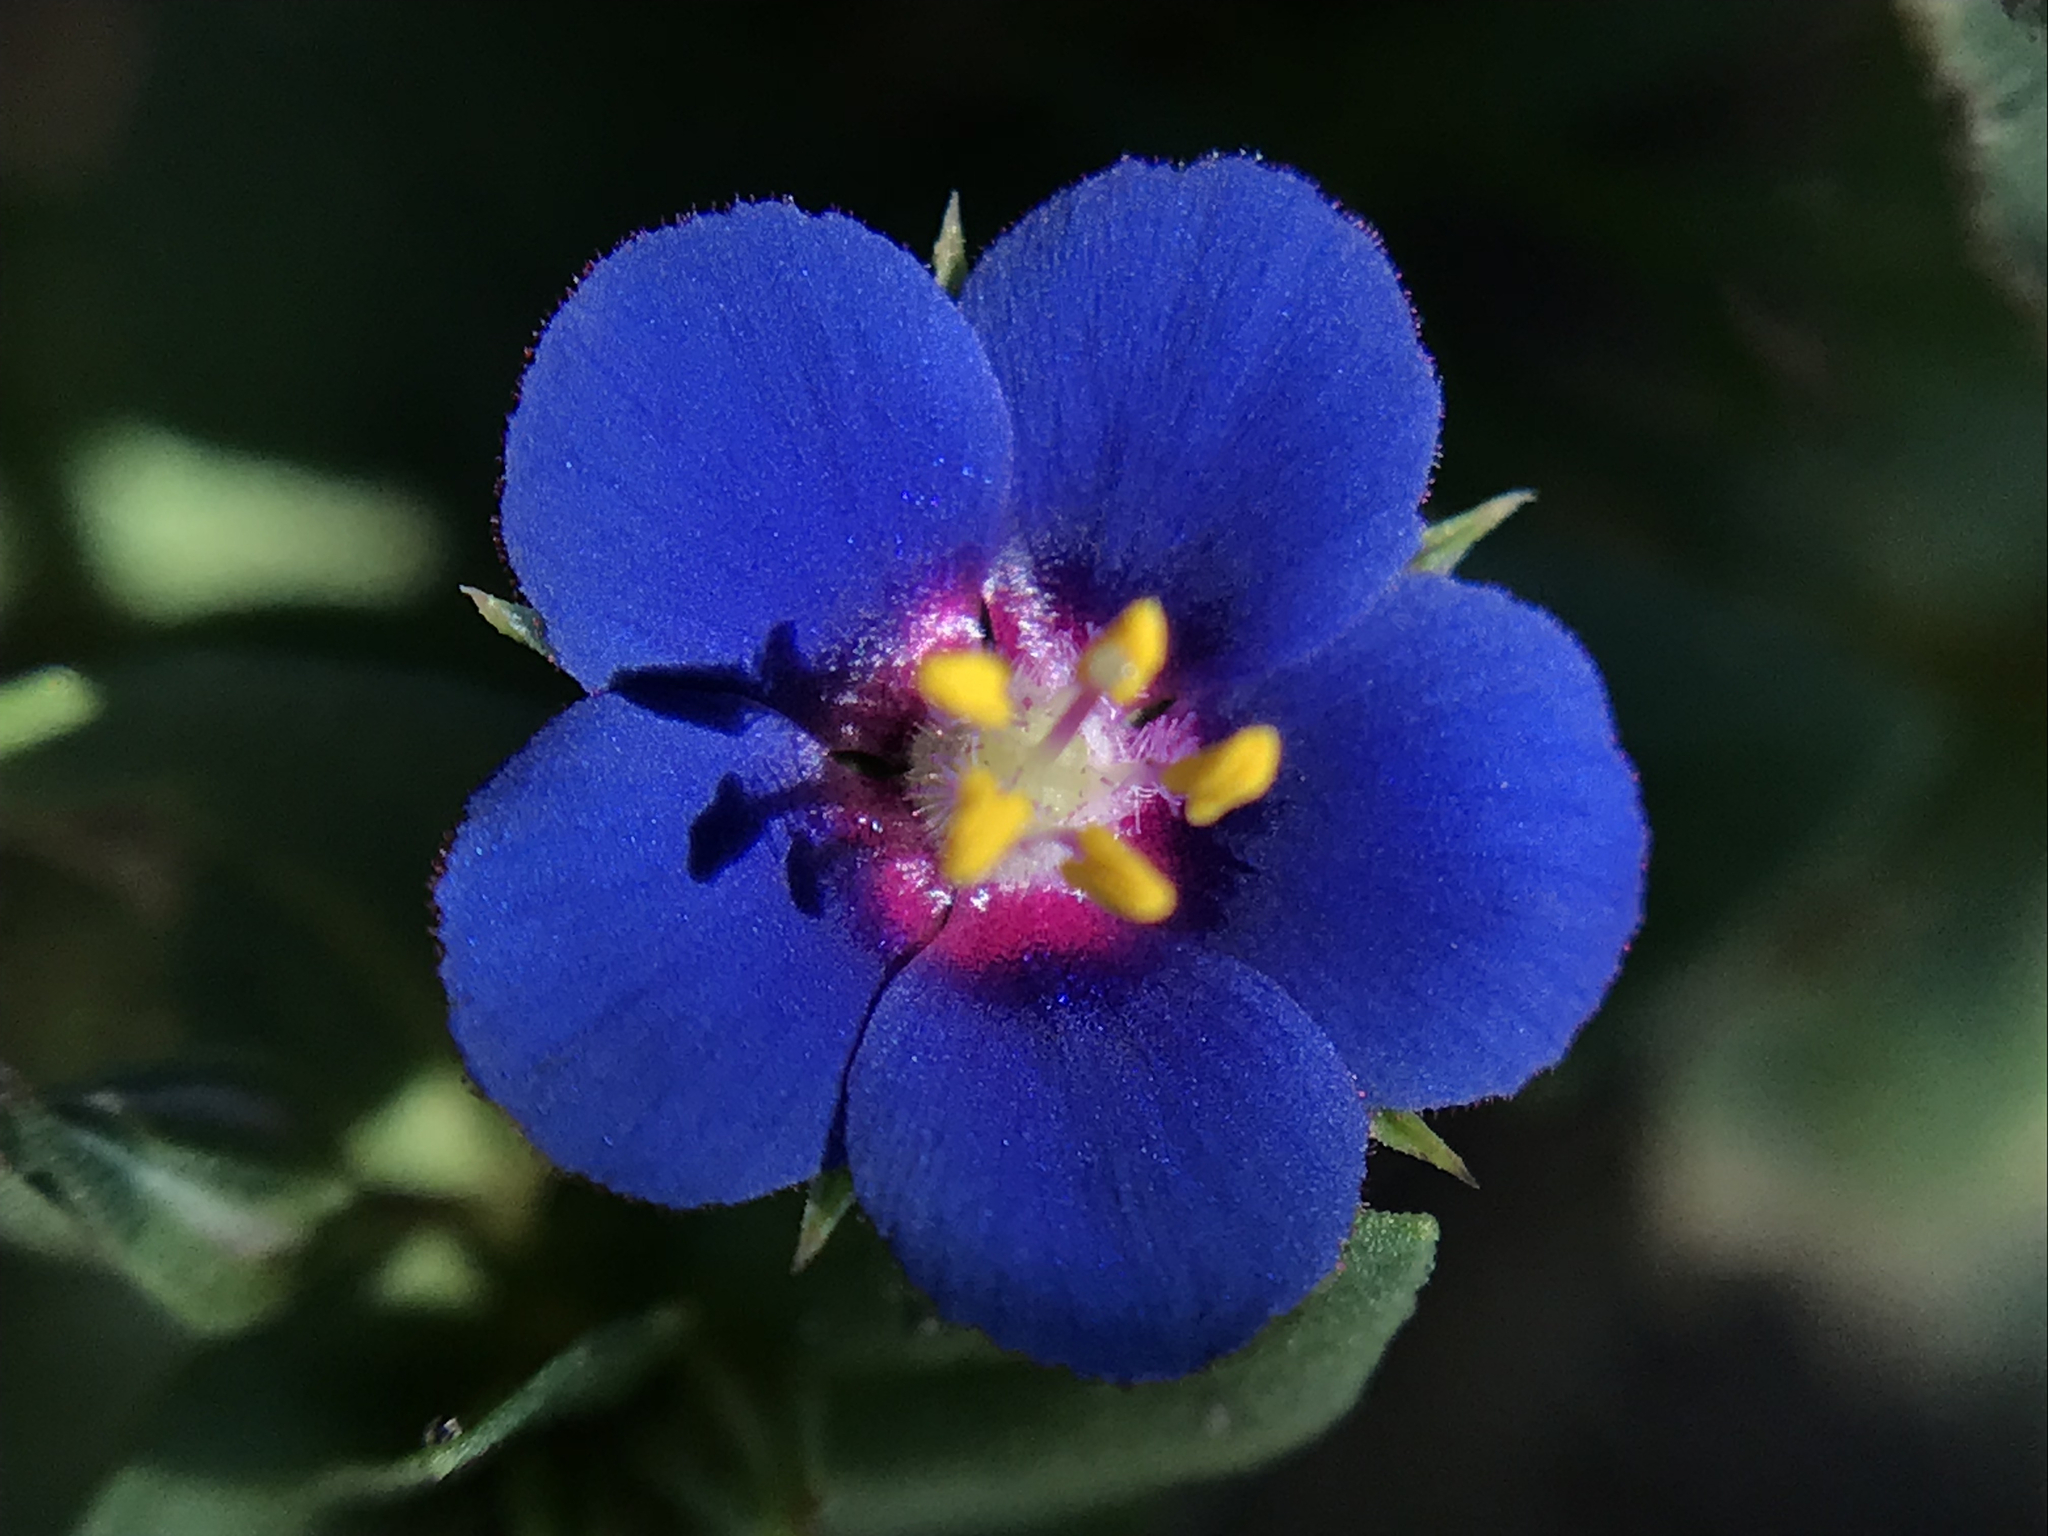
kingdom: Plantae
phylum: Tracheophyta
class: Magnoliopsida
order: Ericales
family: Primulaceae
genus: Lysimachia
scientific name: Lysimachia arvensis
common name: Scarlet pimpernel
